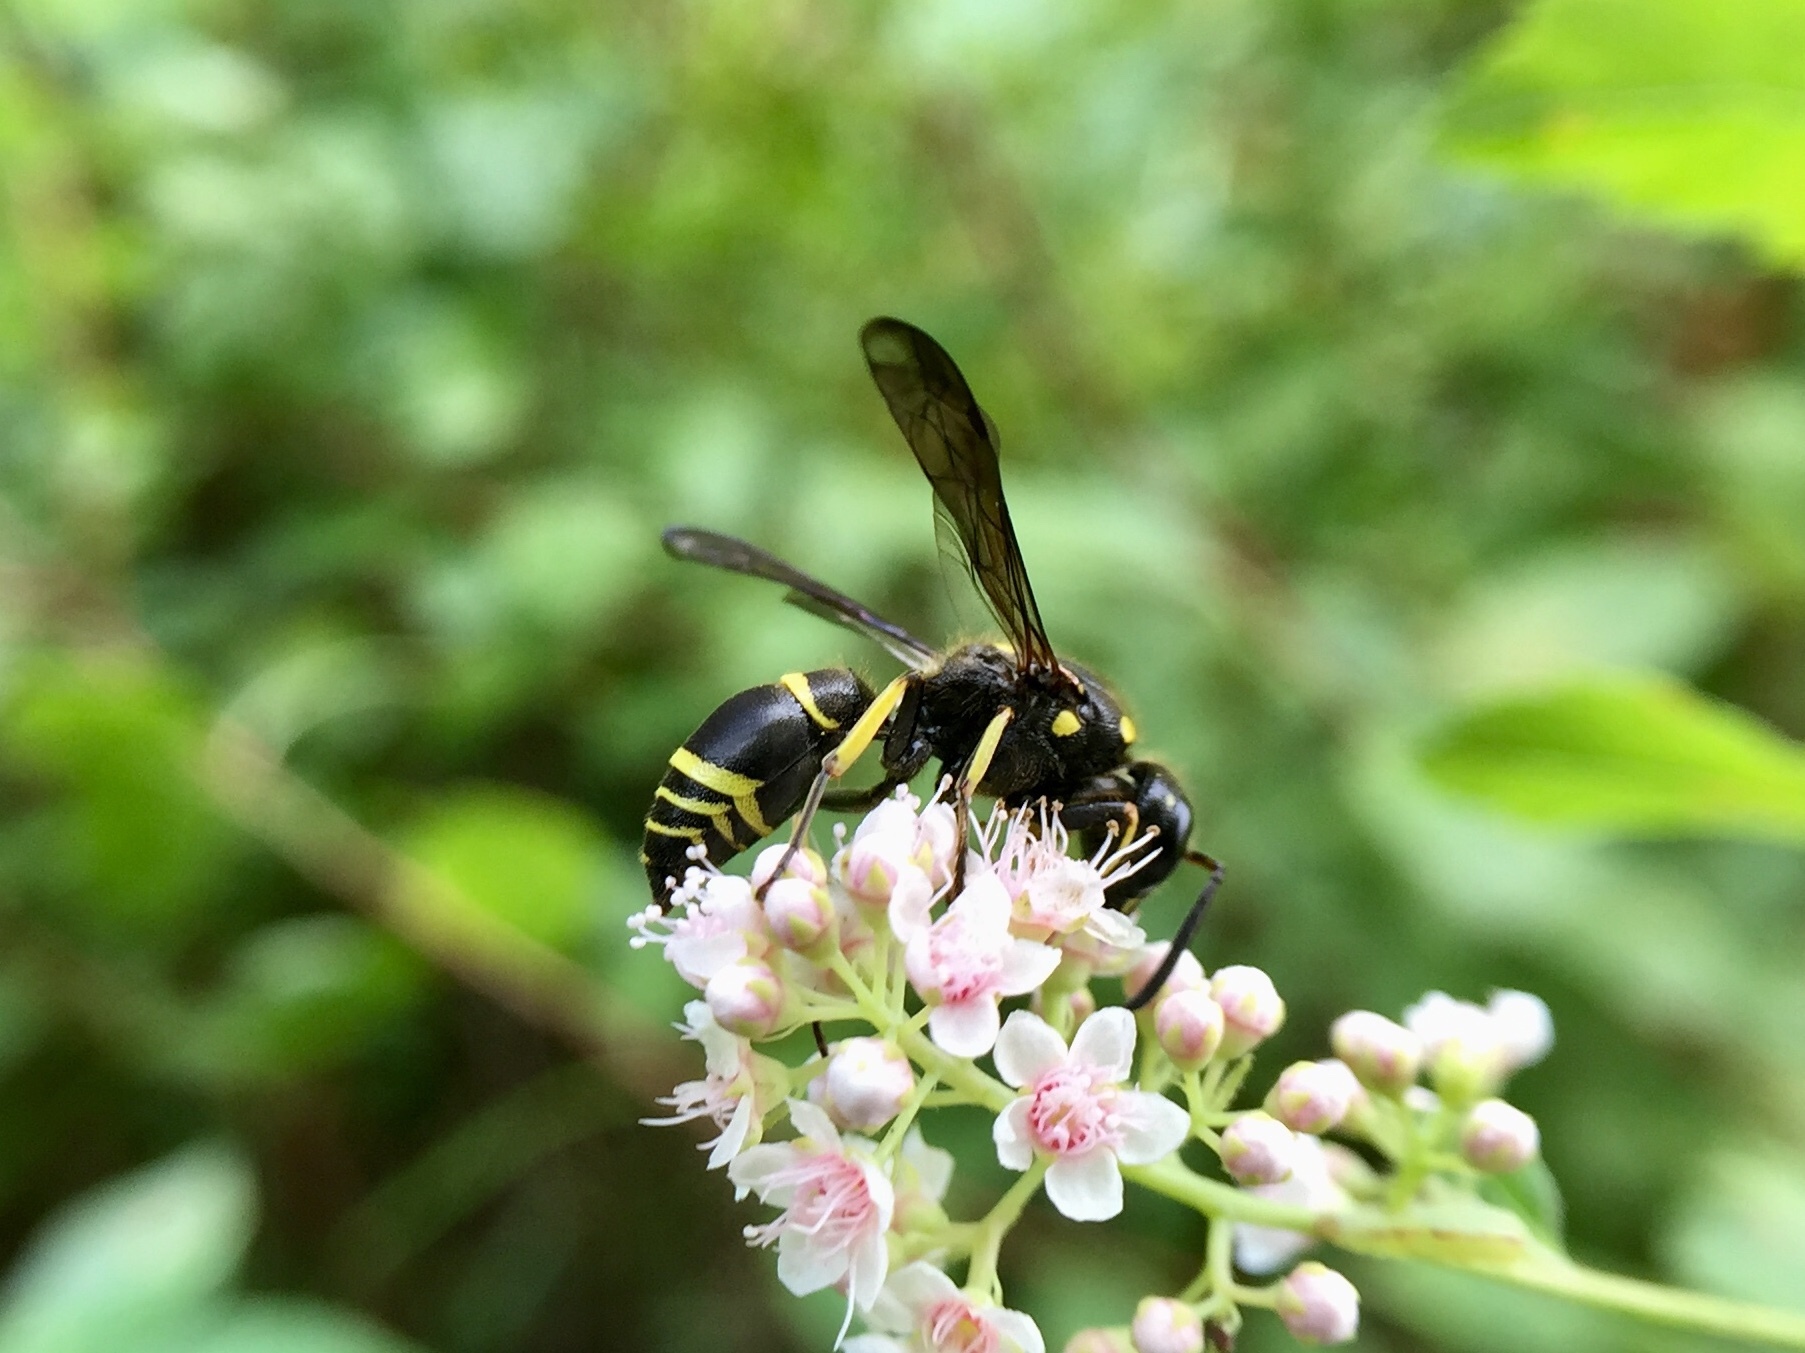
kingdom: Animalia
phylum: Arthropoda
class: Insecta
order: Hymenoptera
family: Vespidae
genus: Ancistrocerus
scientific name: Ancistrocerus
